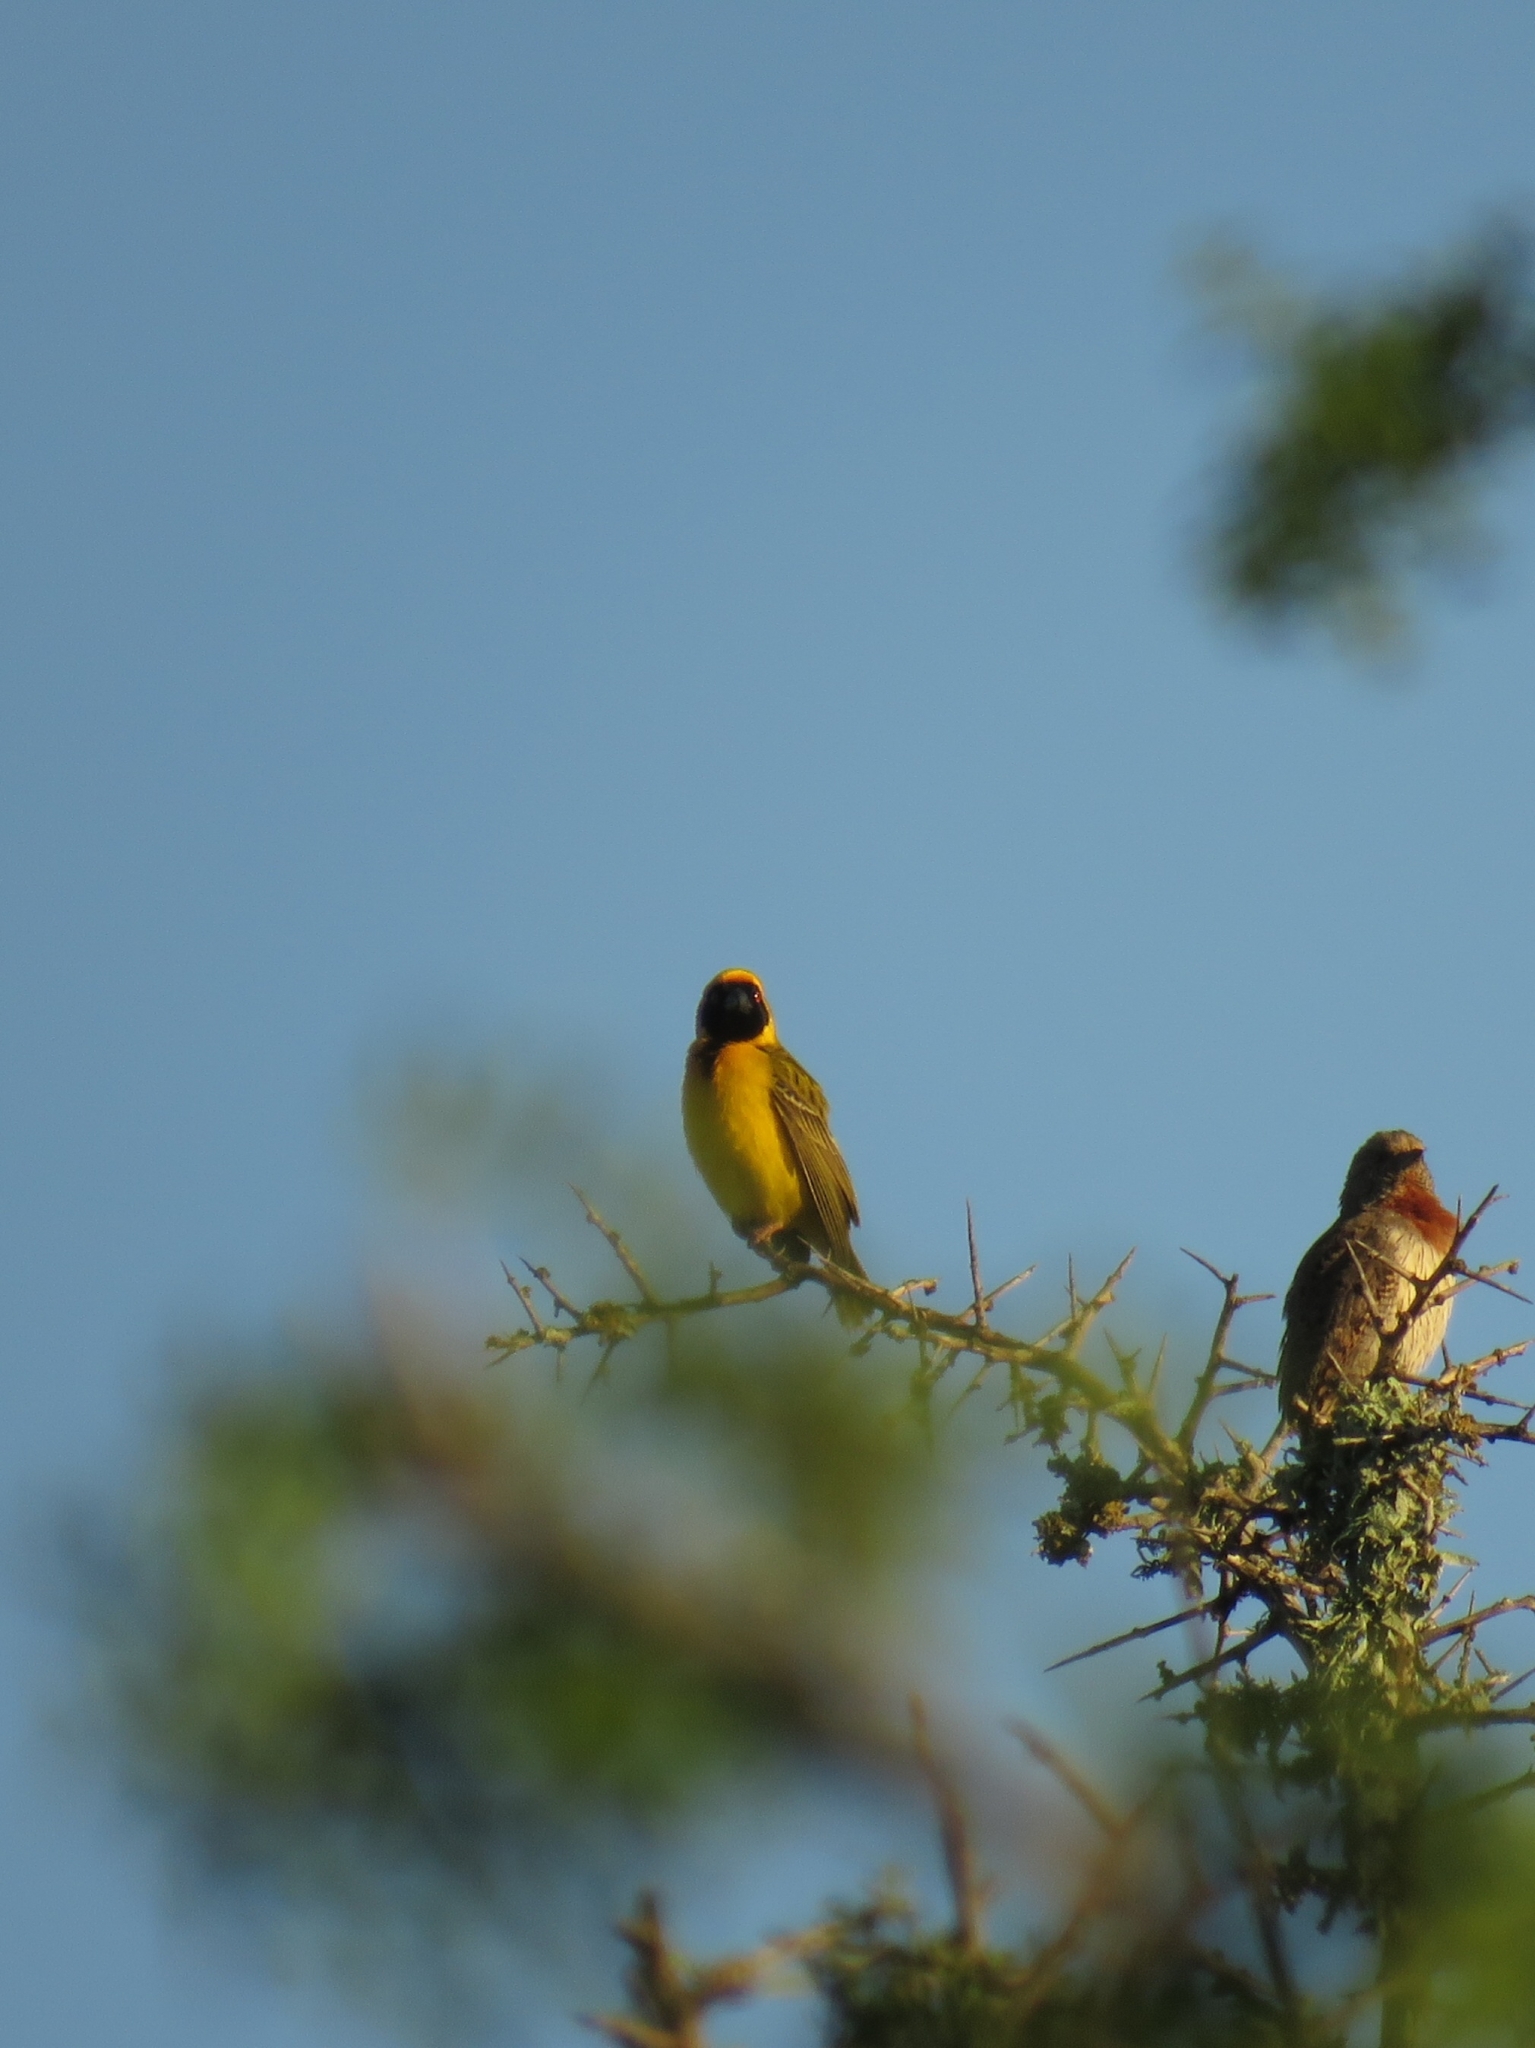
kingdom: Animalia
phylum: Chordata
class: Aves
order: Passeriformes
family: Ploceidae
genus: Ploceus
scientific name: Ploceus velatus
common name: Southern masked weaver
